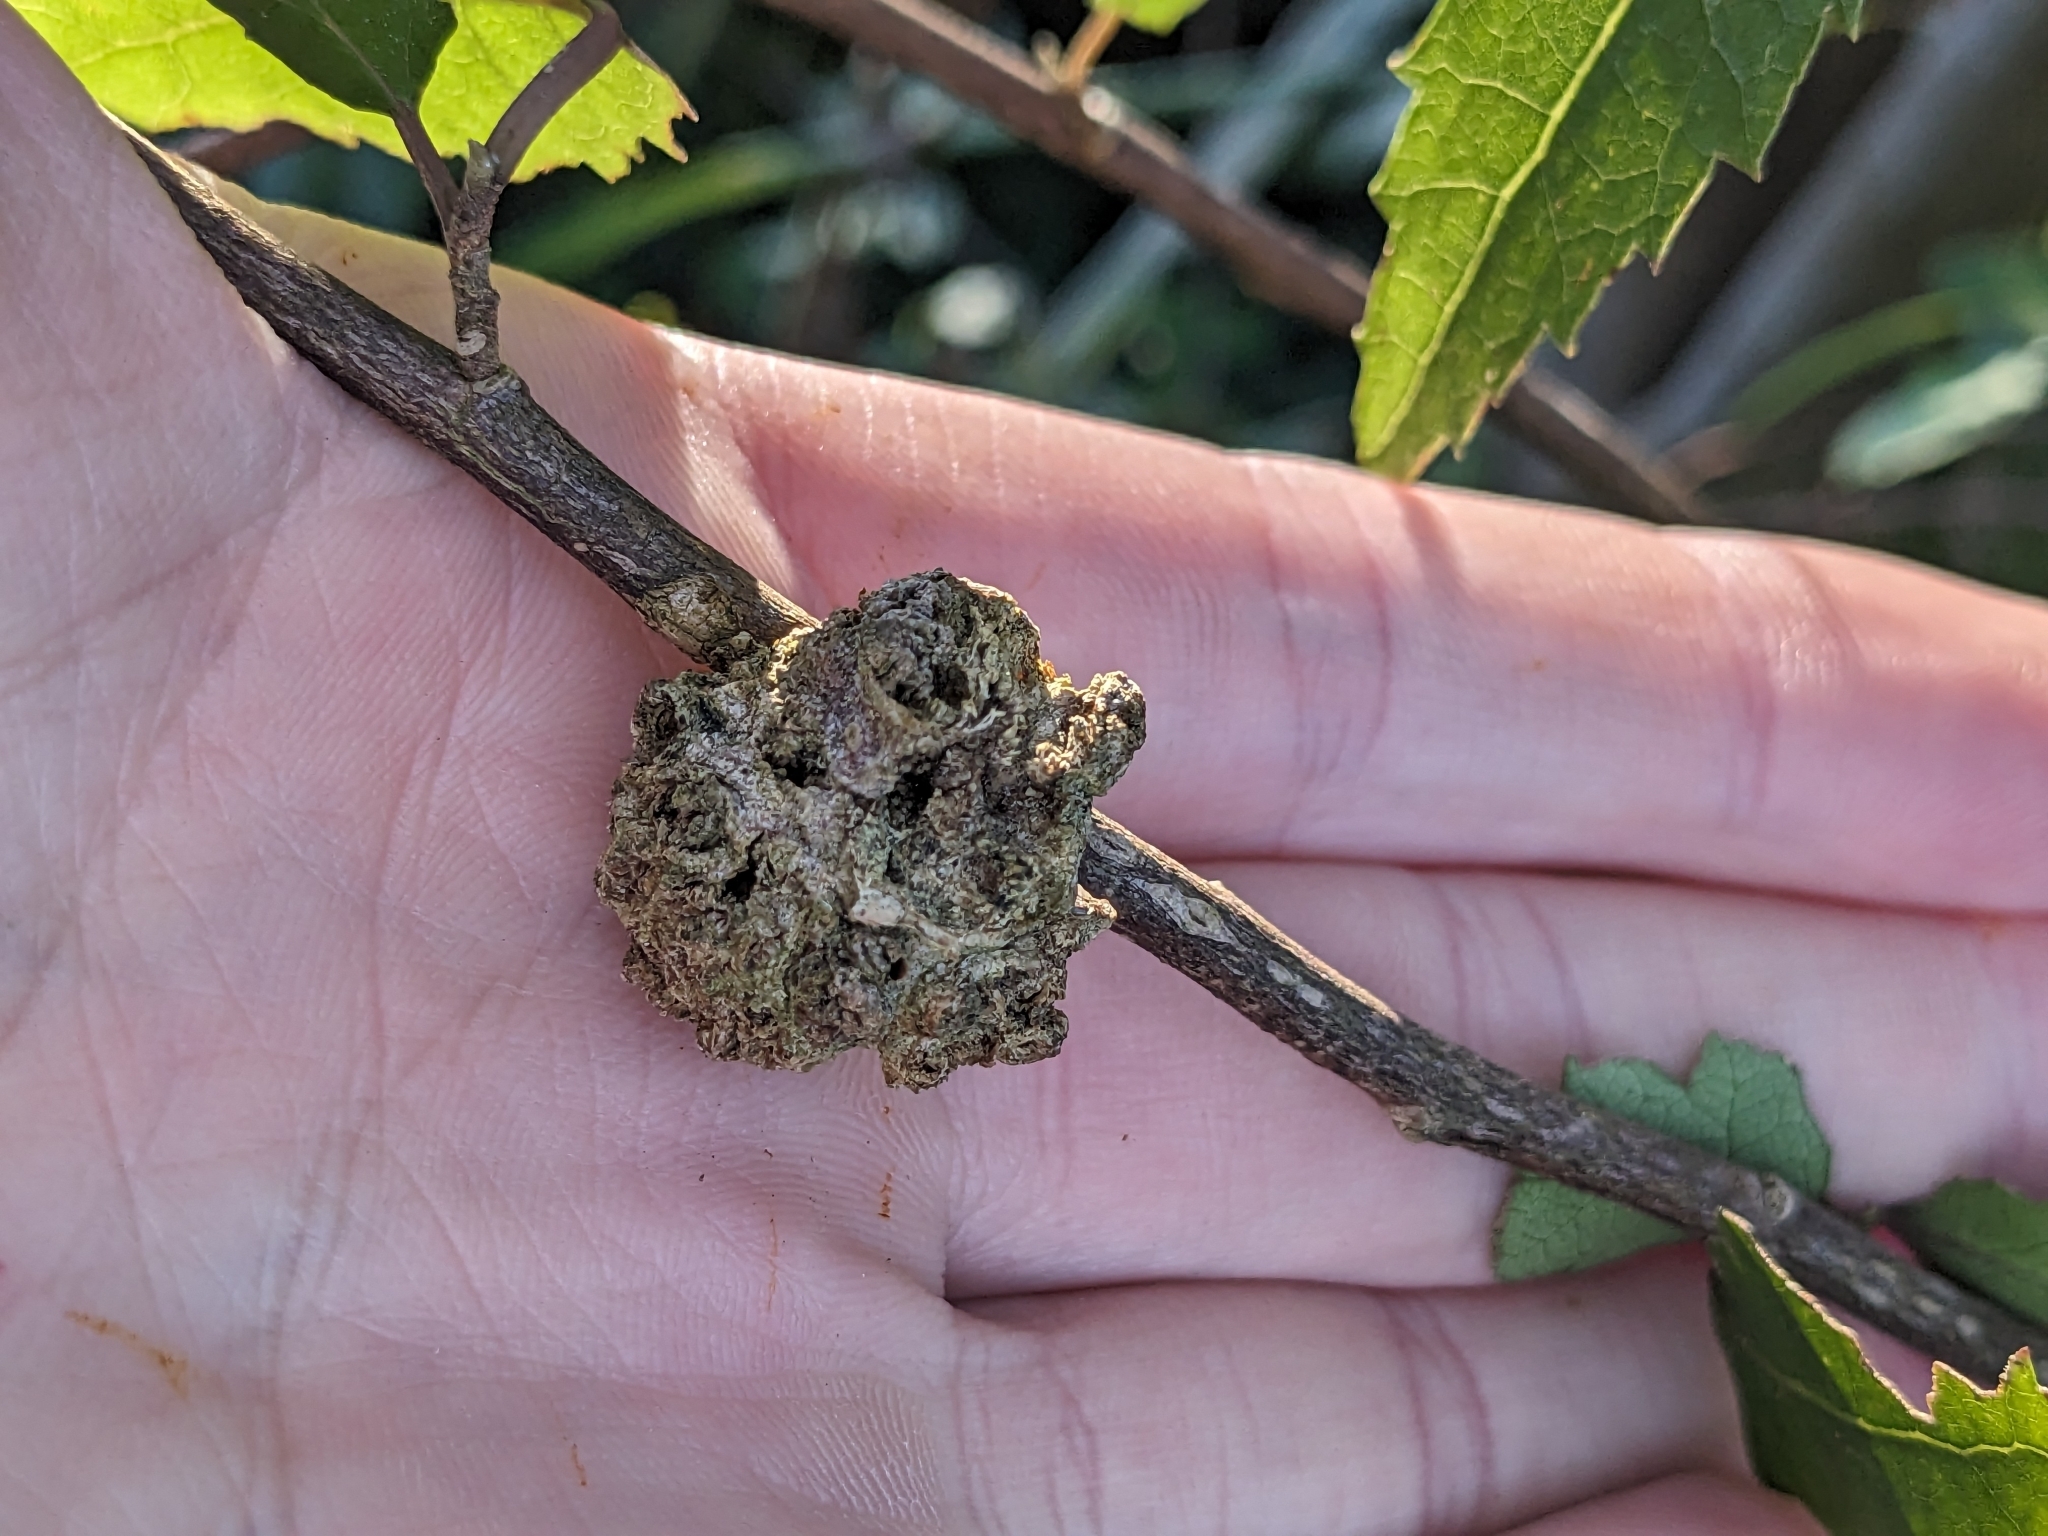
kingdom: Animalia
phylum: Arthropoda
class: Arachnida
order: Trombidiformes
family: Eriophyidae
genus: Eriophyes
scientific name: Eriophyes hoheriae
